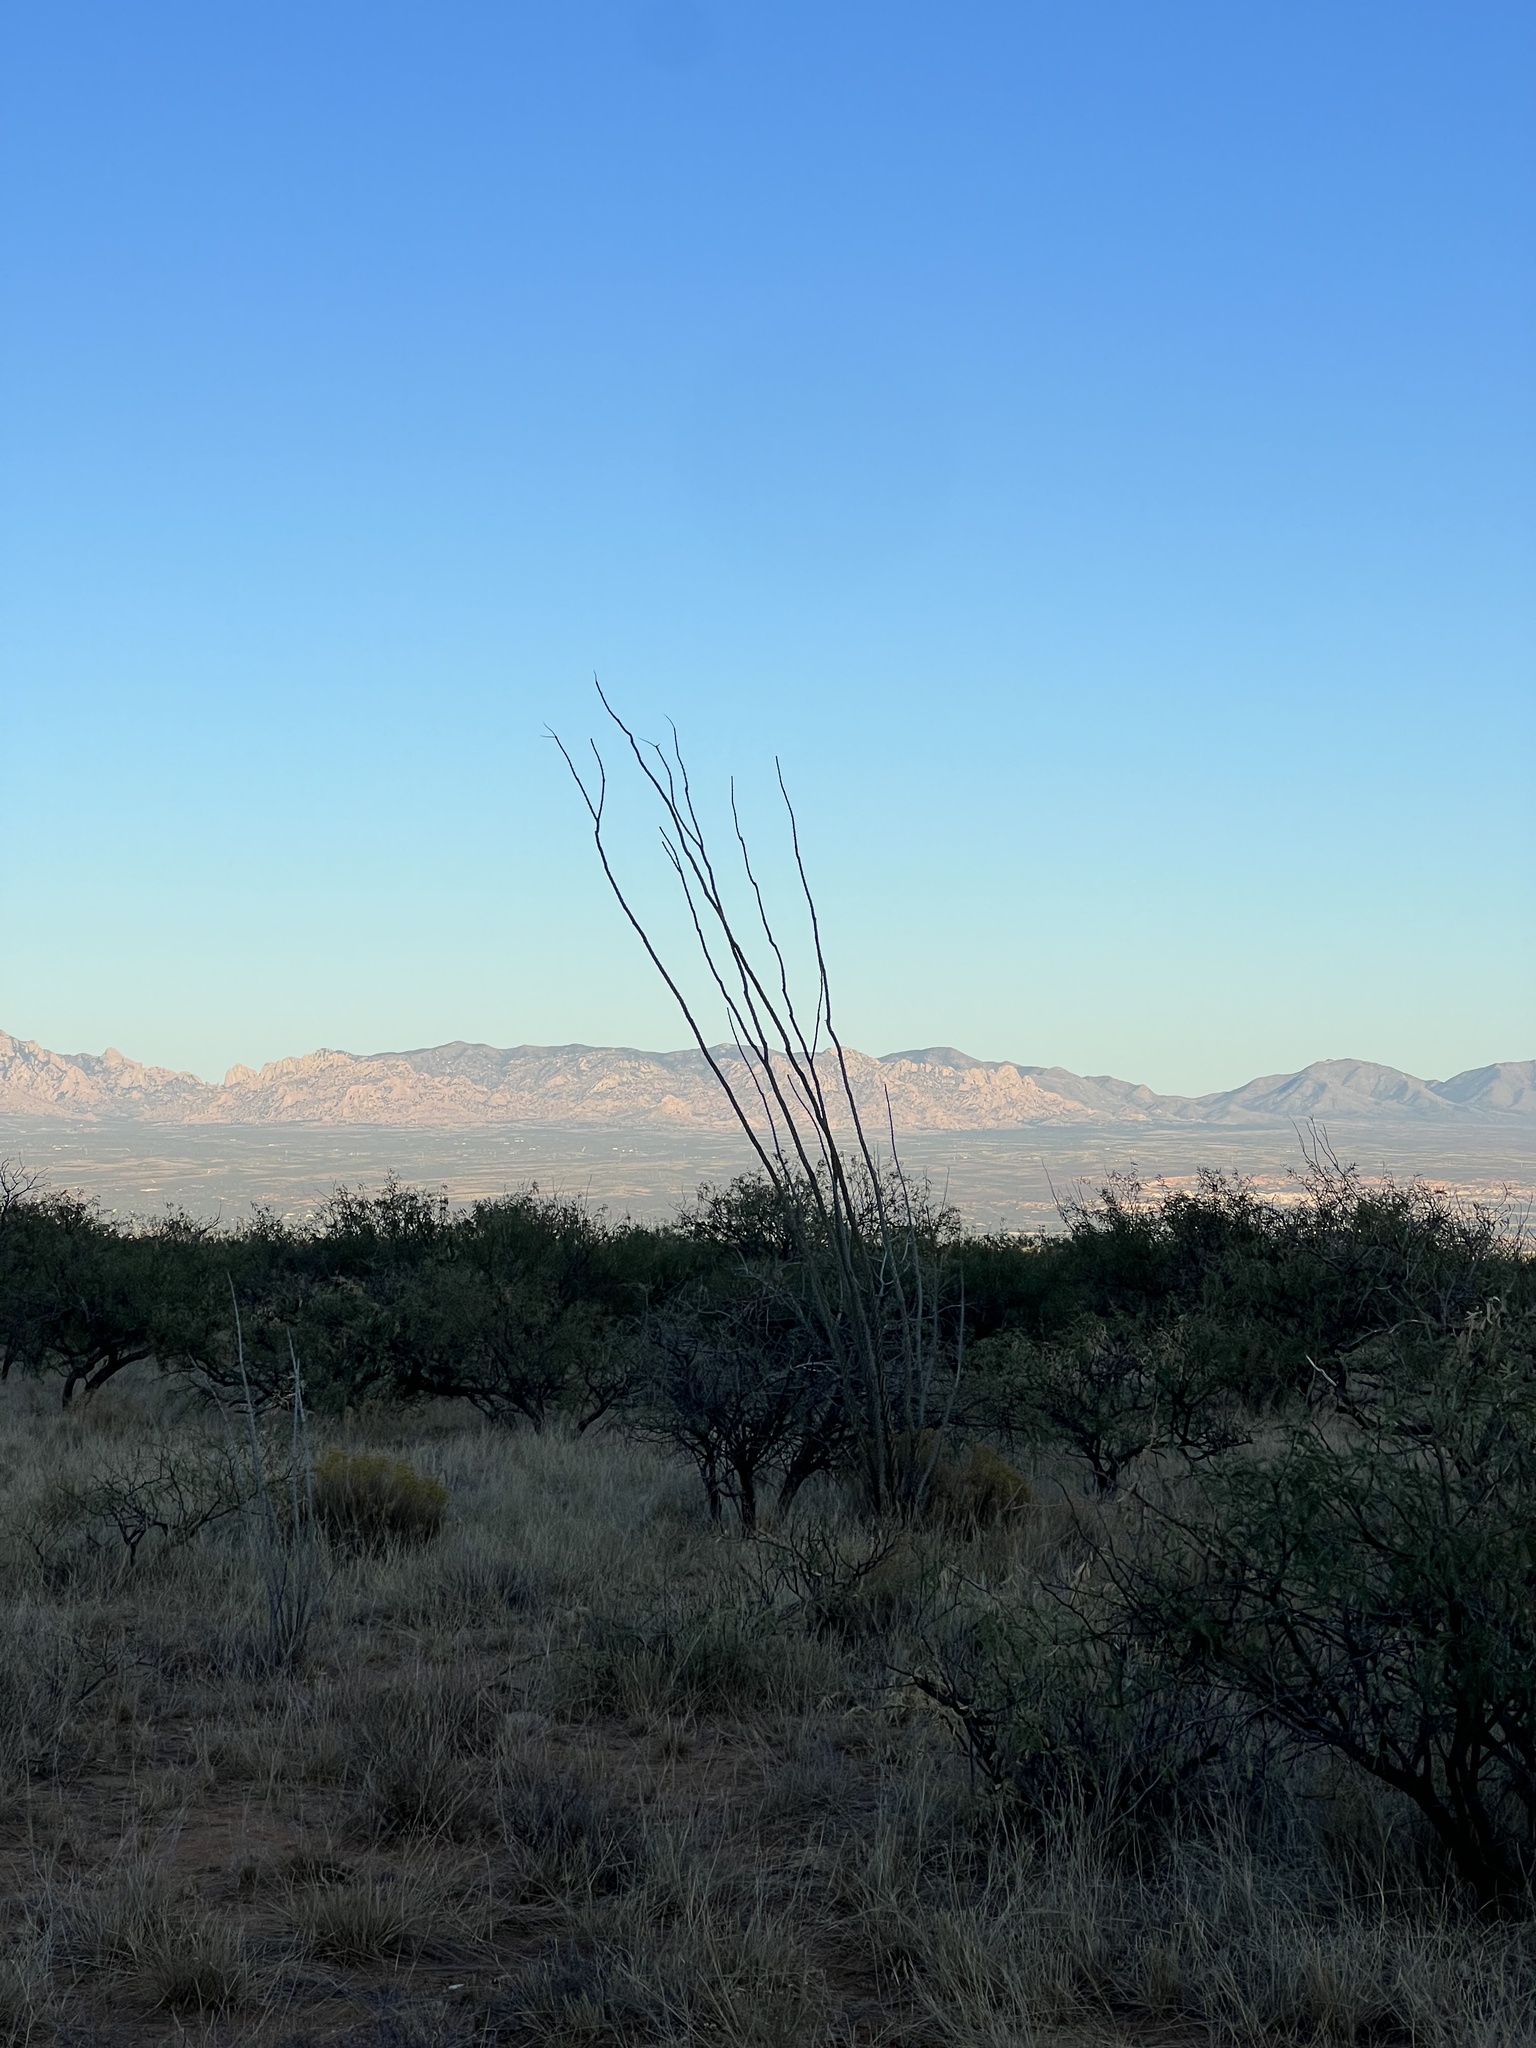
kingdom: Plantae
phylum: Tracheophyta
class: Magnoliopsida
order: Ericales
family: Fouquieriaceae
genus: Fouquieria
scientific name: Fouquieria splendens
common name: Vine-cactus
